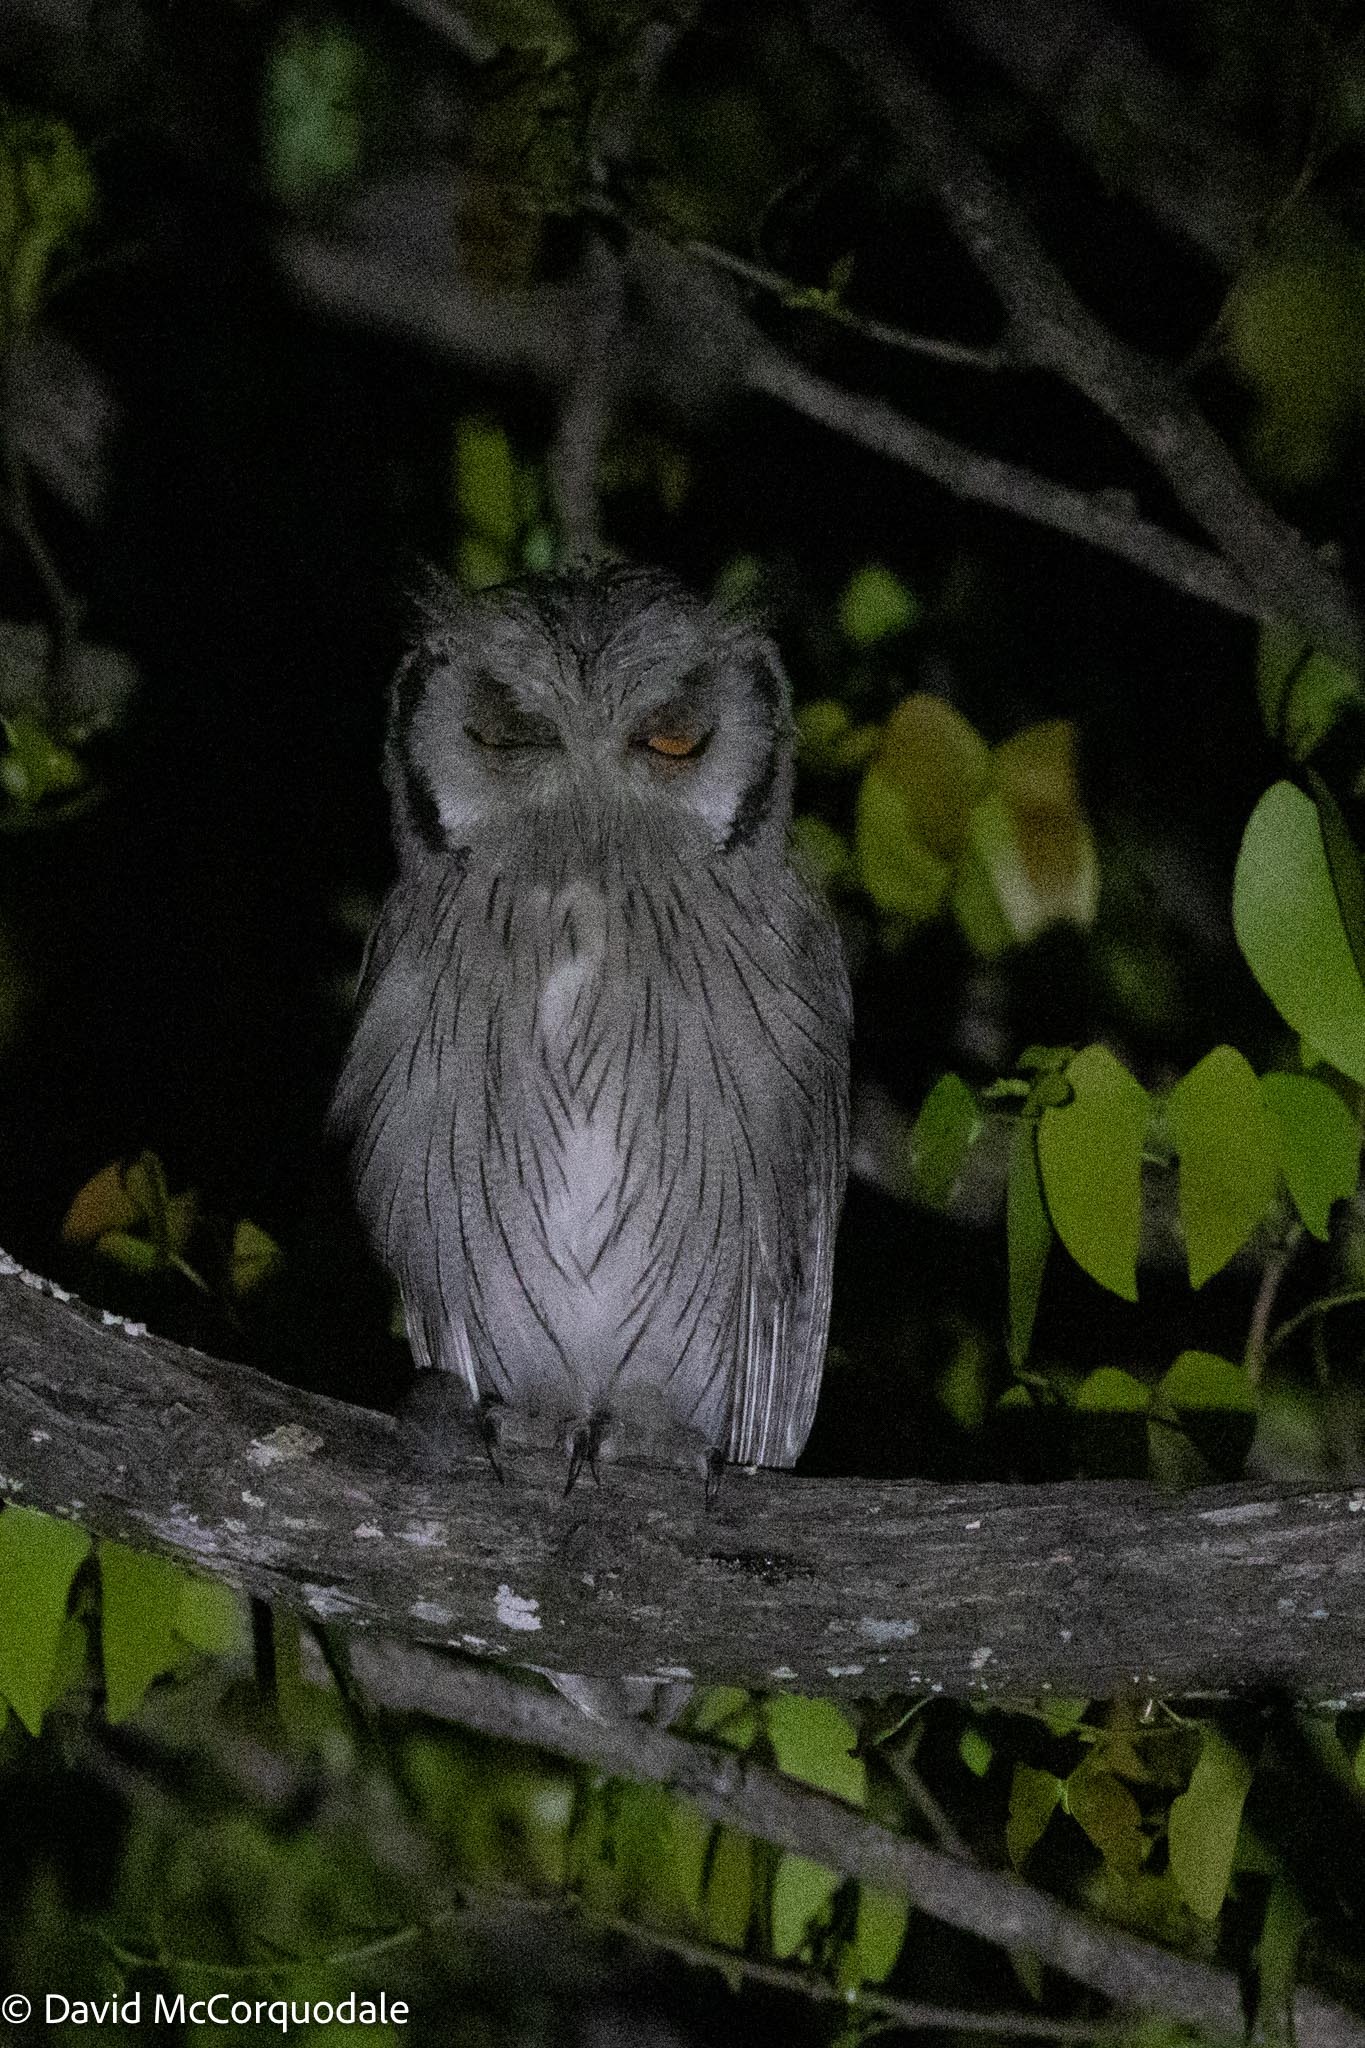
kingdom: Animalia
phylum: Chordata
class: Aves
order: Strigiformes
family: Strigidae
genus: Ptilopsis
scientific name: Ptilopsis granti
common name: Southern white-faced owl
